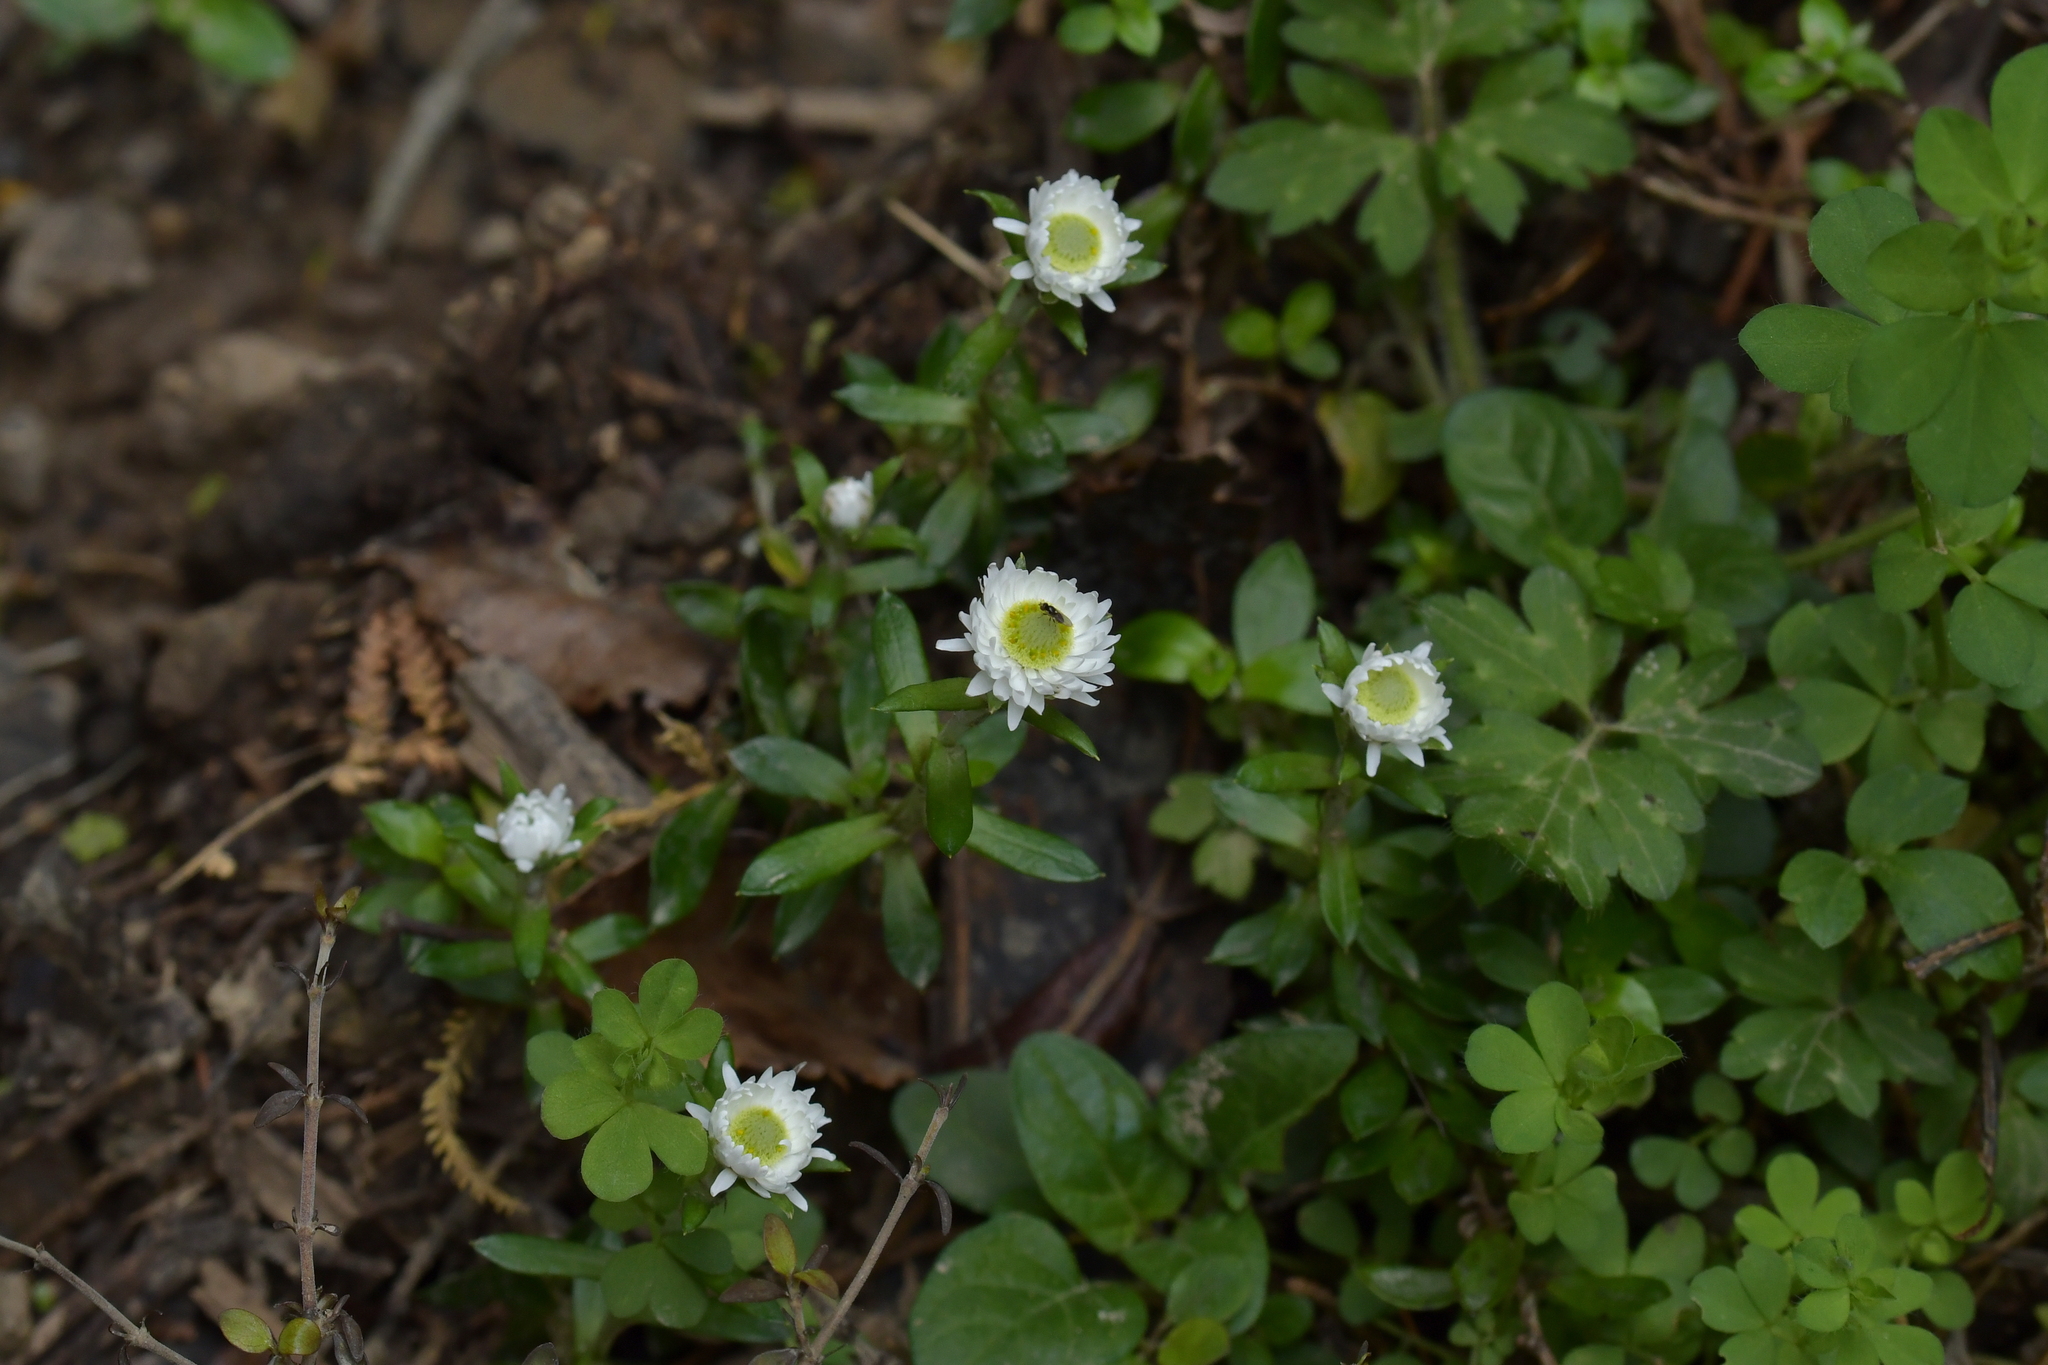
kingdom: Plantae
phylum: Tracheophyta
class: Magnoliopsida
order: Asterales
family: Asteraceae
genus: Anaphalioides
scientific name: Anaphalioides trinervis
